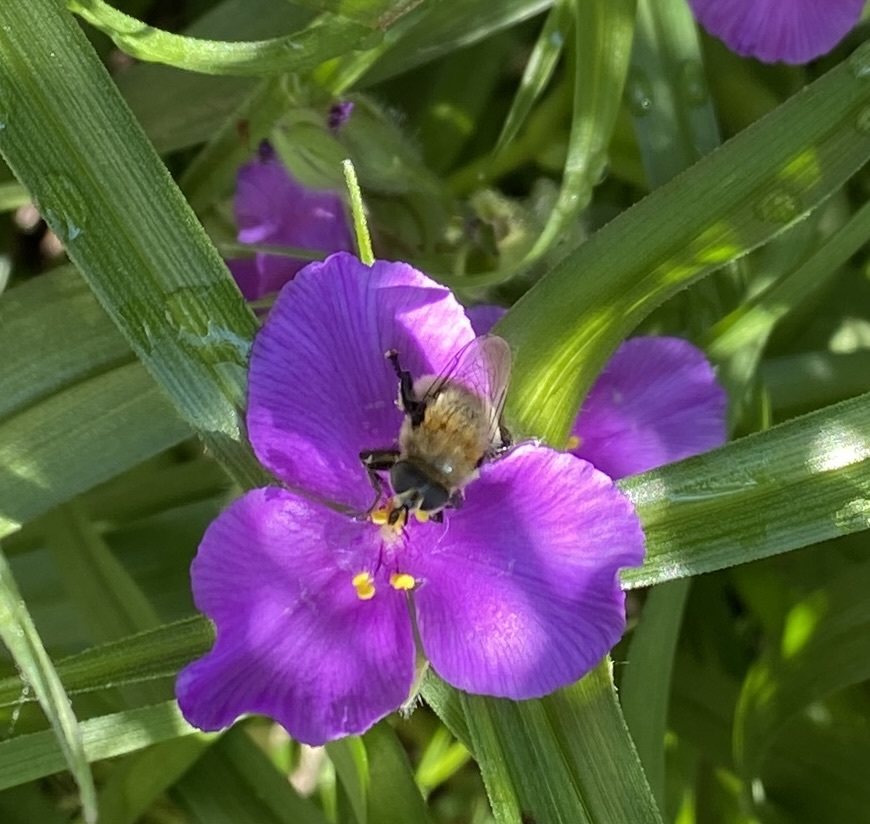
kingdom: Animalia
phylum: Arthropoda
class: Insecta
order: Diptera
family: Syrphidae
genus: Merodon
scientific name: Merodon equestris
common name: Greater bulb-fly
